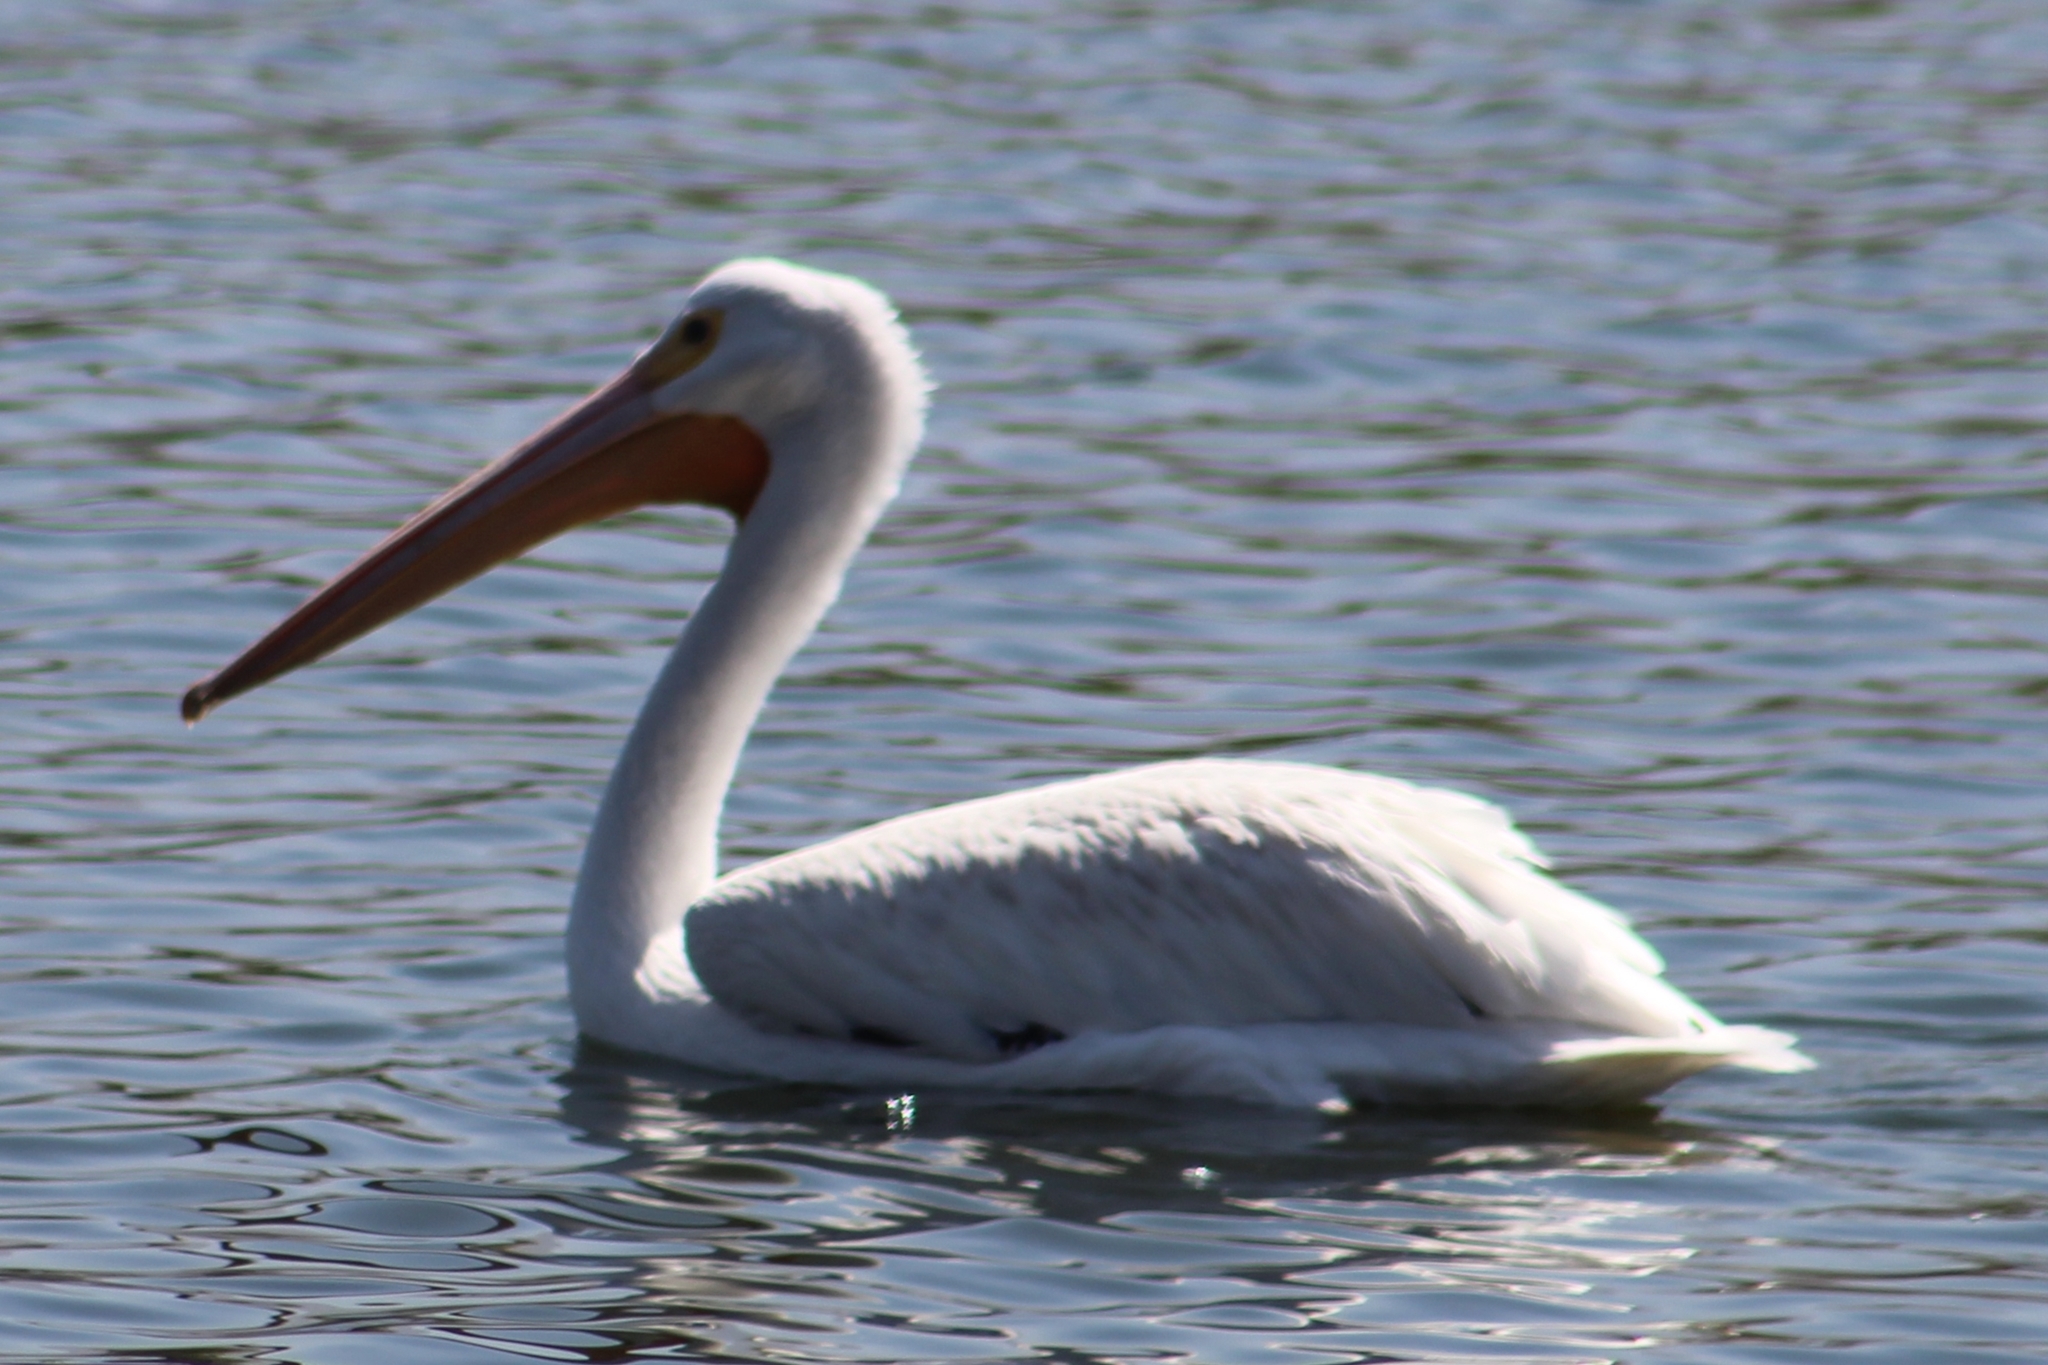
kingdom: Animalia
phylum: Chordata
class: Aves
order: Pelecaniformes
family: Pelecanidae
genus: Pelecanus
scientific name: Pelecanus erythrorhynchos
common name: American white pelican
